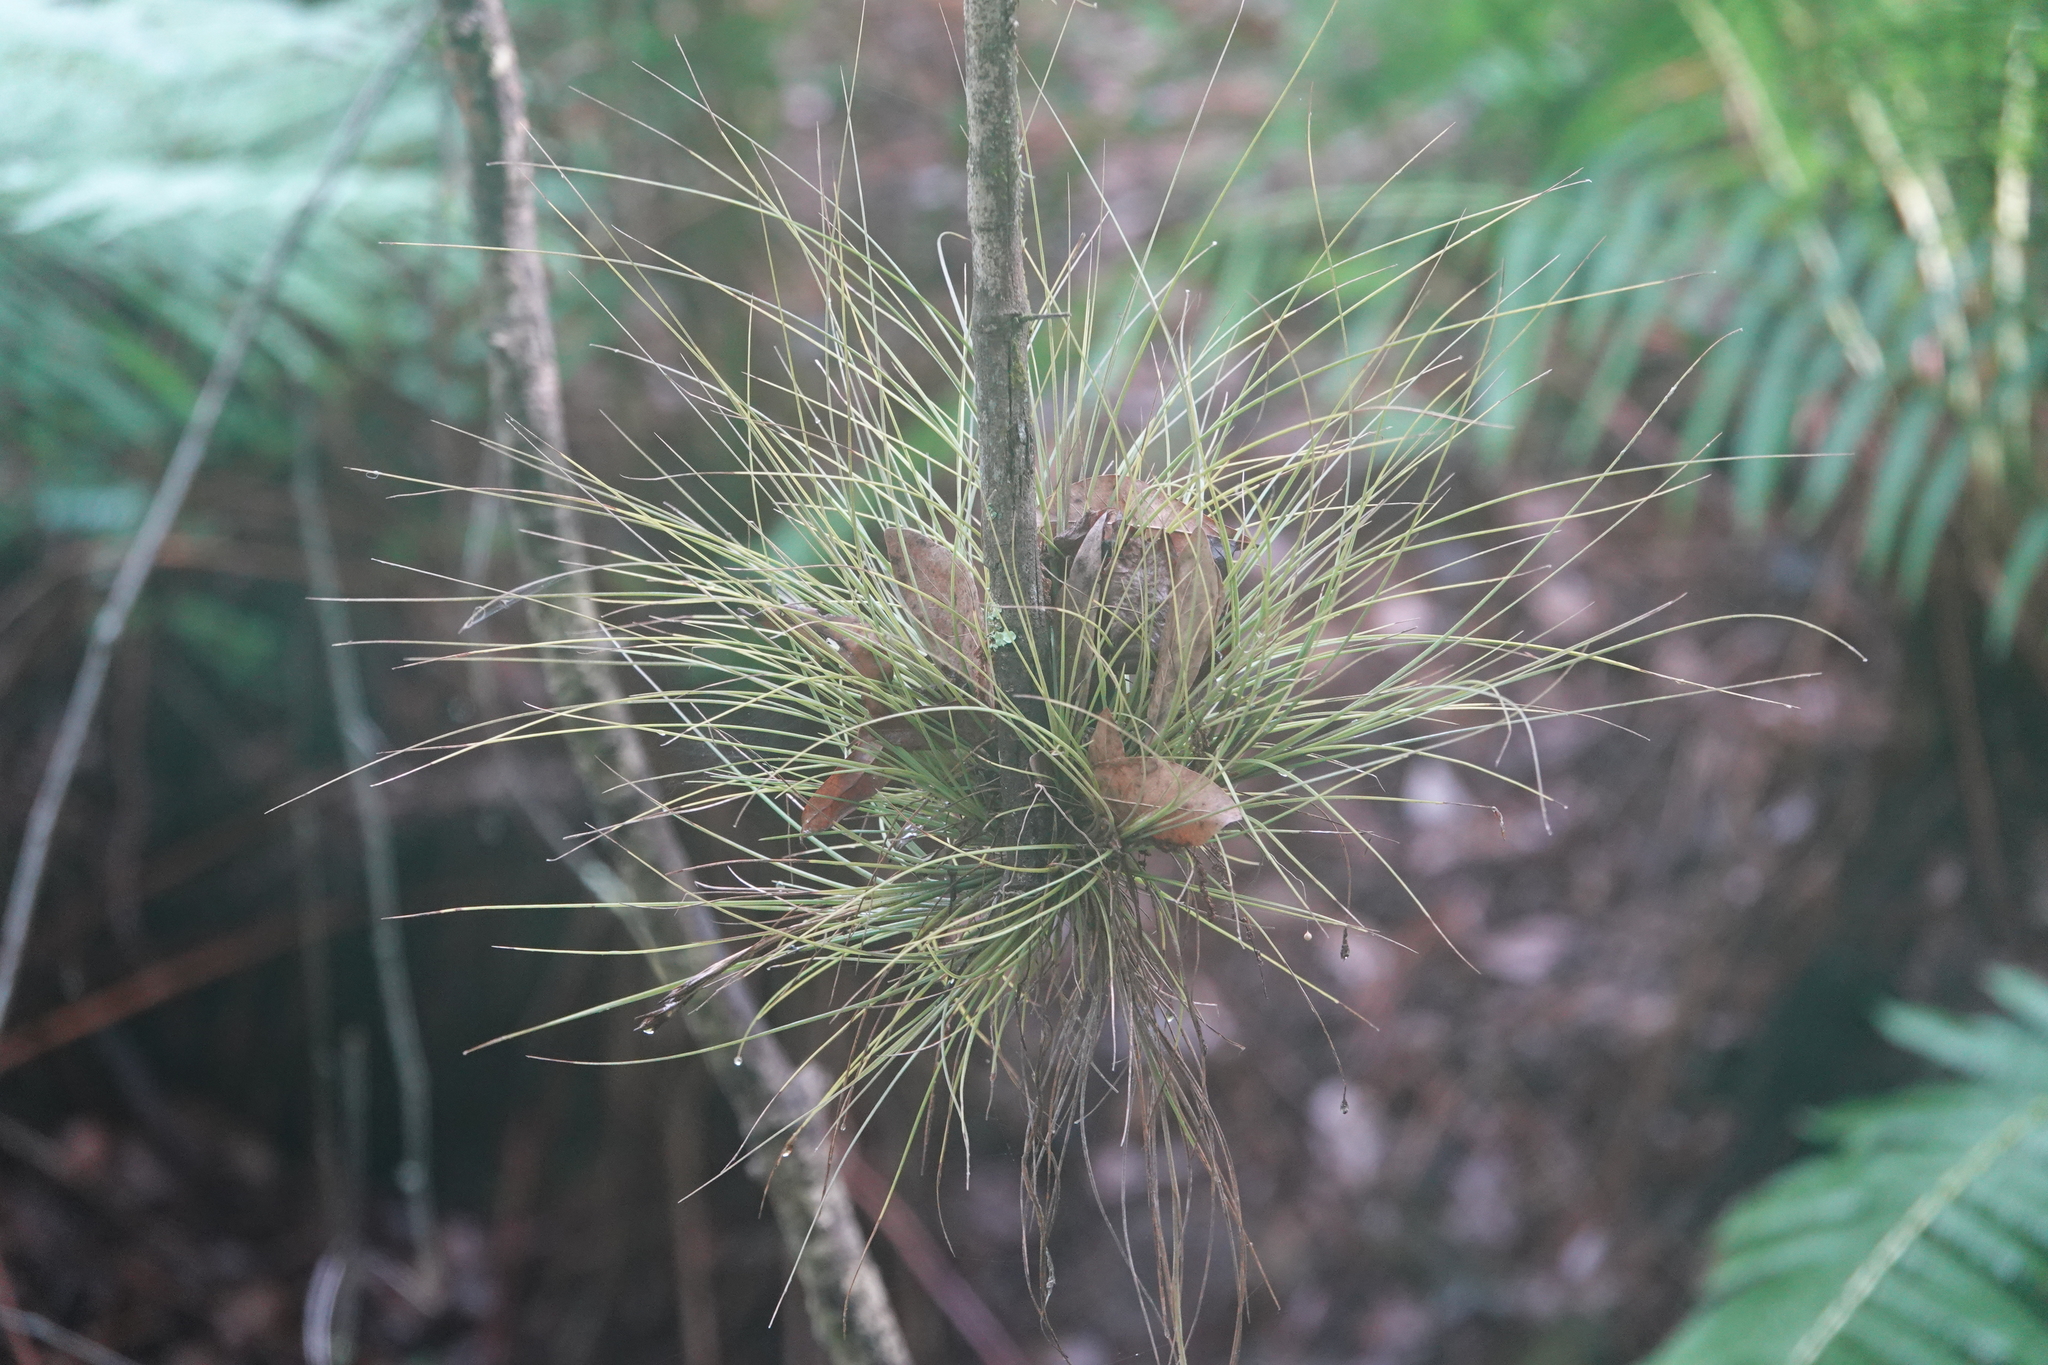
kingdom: Plantae
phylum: Tracheophyta
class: Liliopsida
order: Poales
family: Bromeliaceae
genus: Tillandsia
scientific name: Tillandsia setacea
